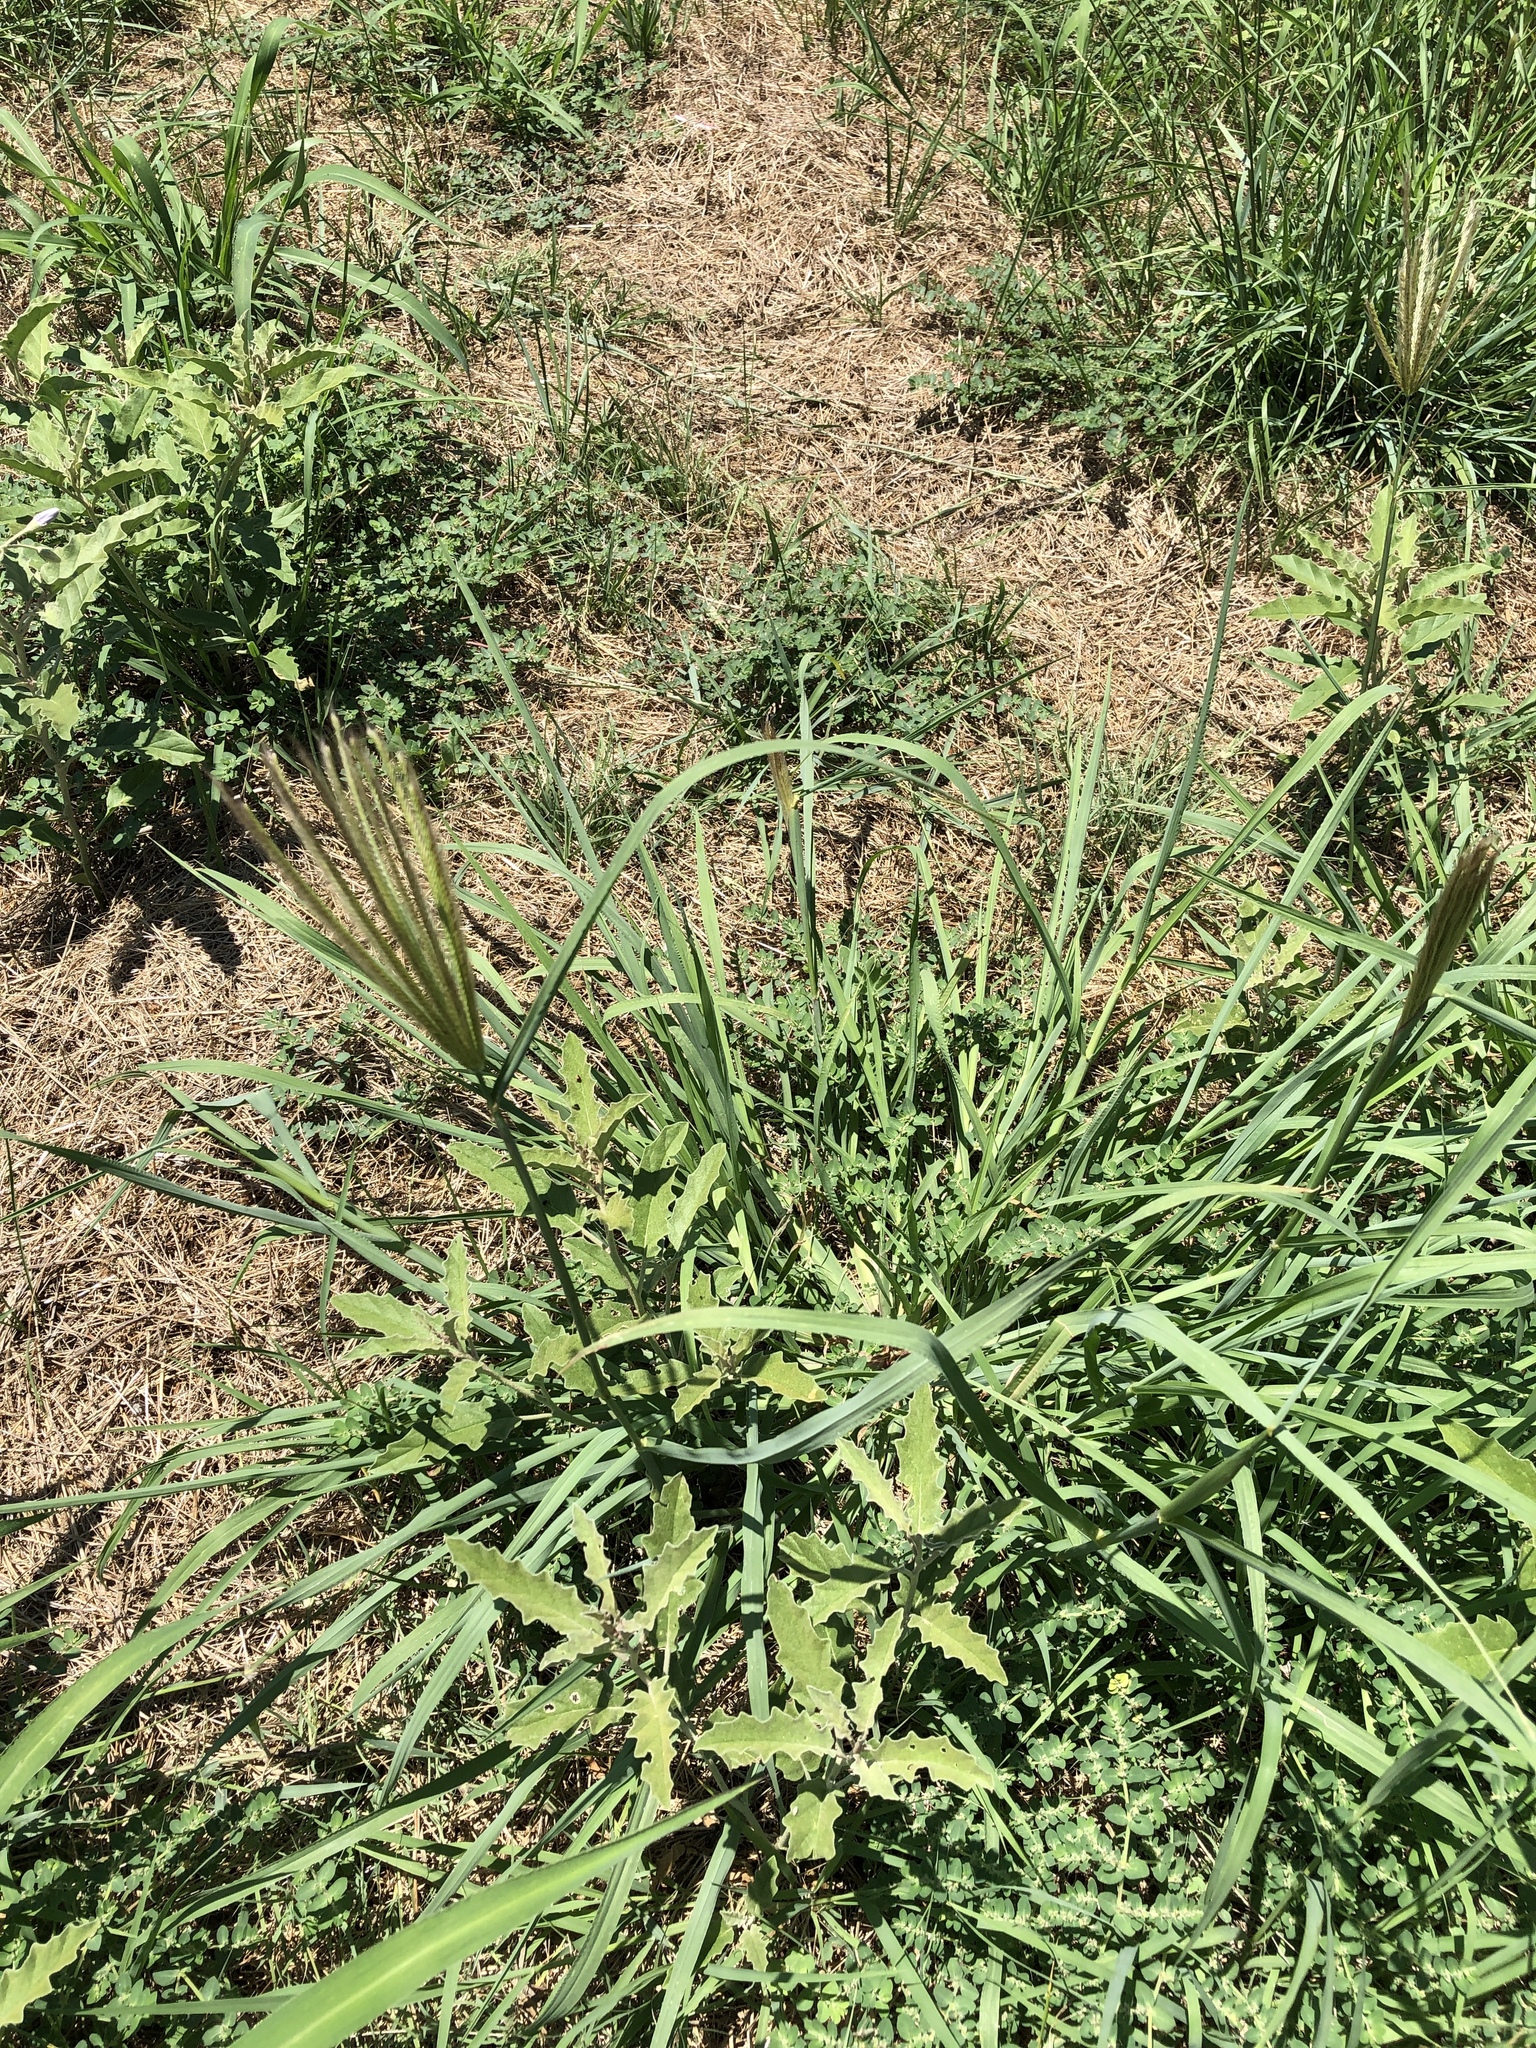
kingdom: Plantae
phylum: Tracheophyta
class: Liliopsida
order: Poales
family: Poaceae
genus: Chloris
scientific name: Chloris virgata
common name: Feathery rhodes-grass
